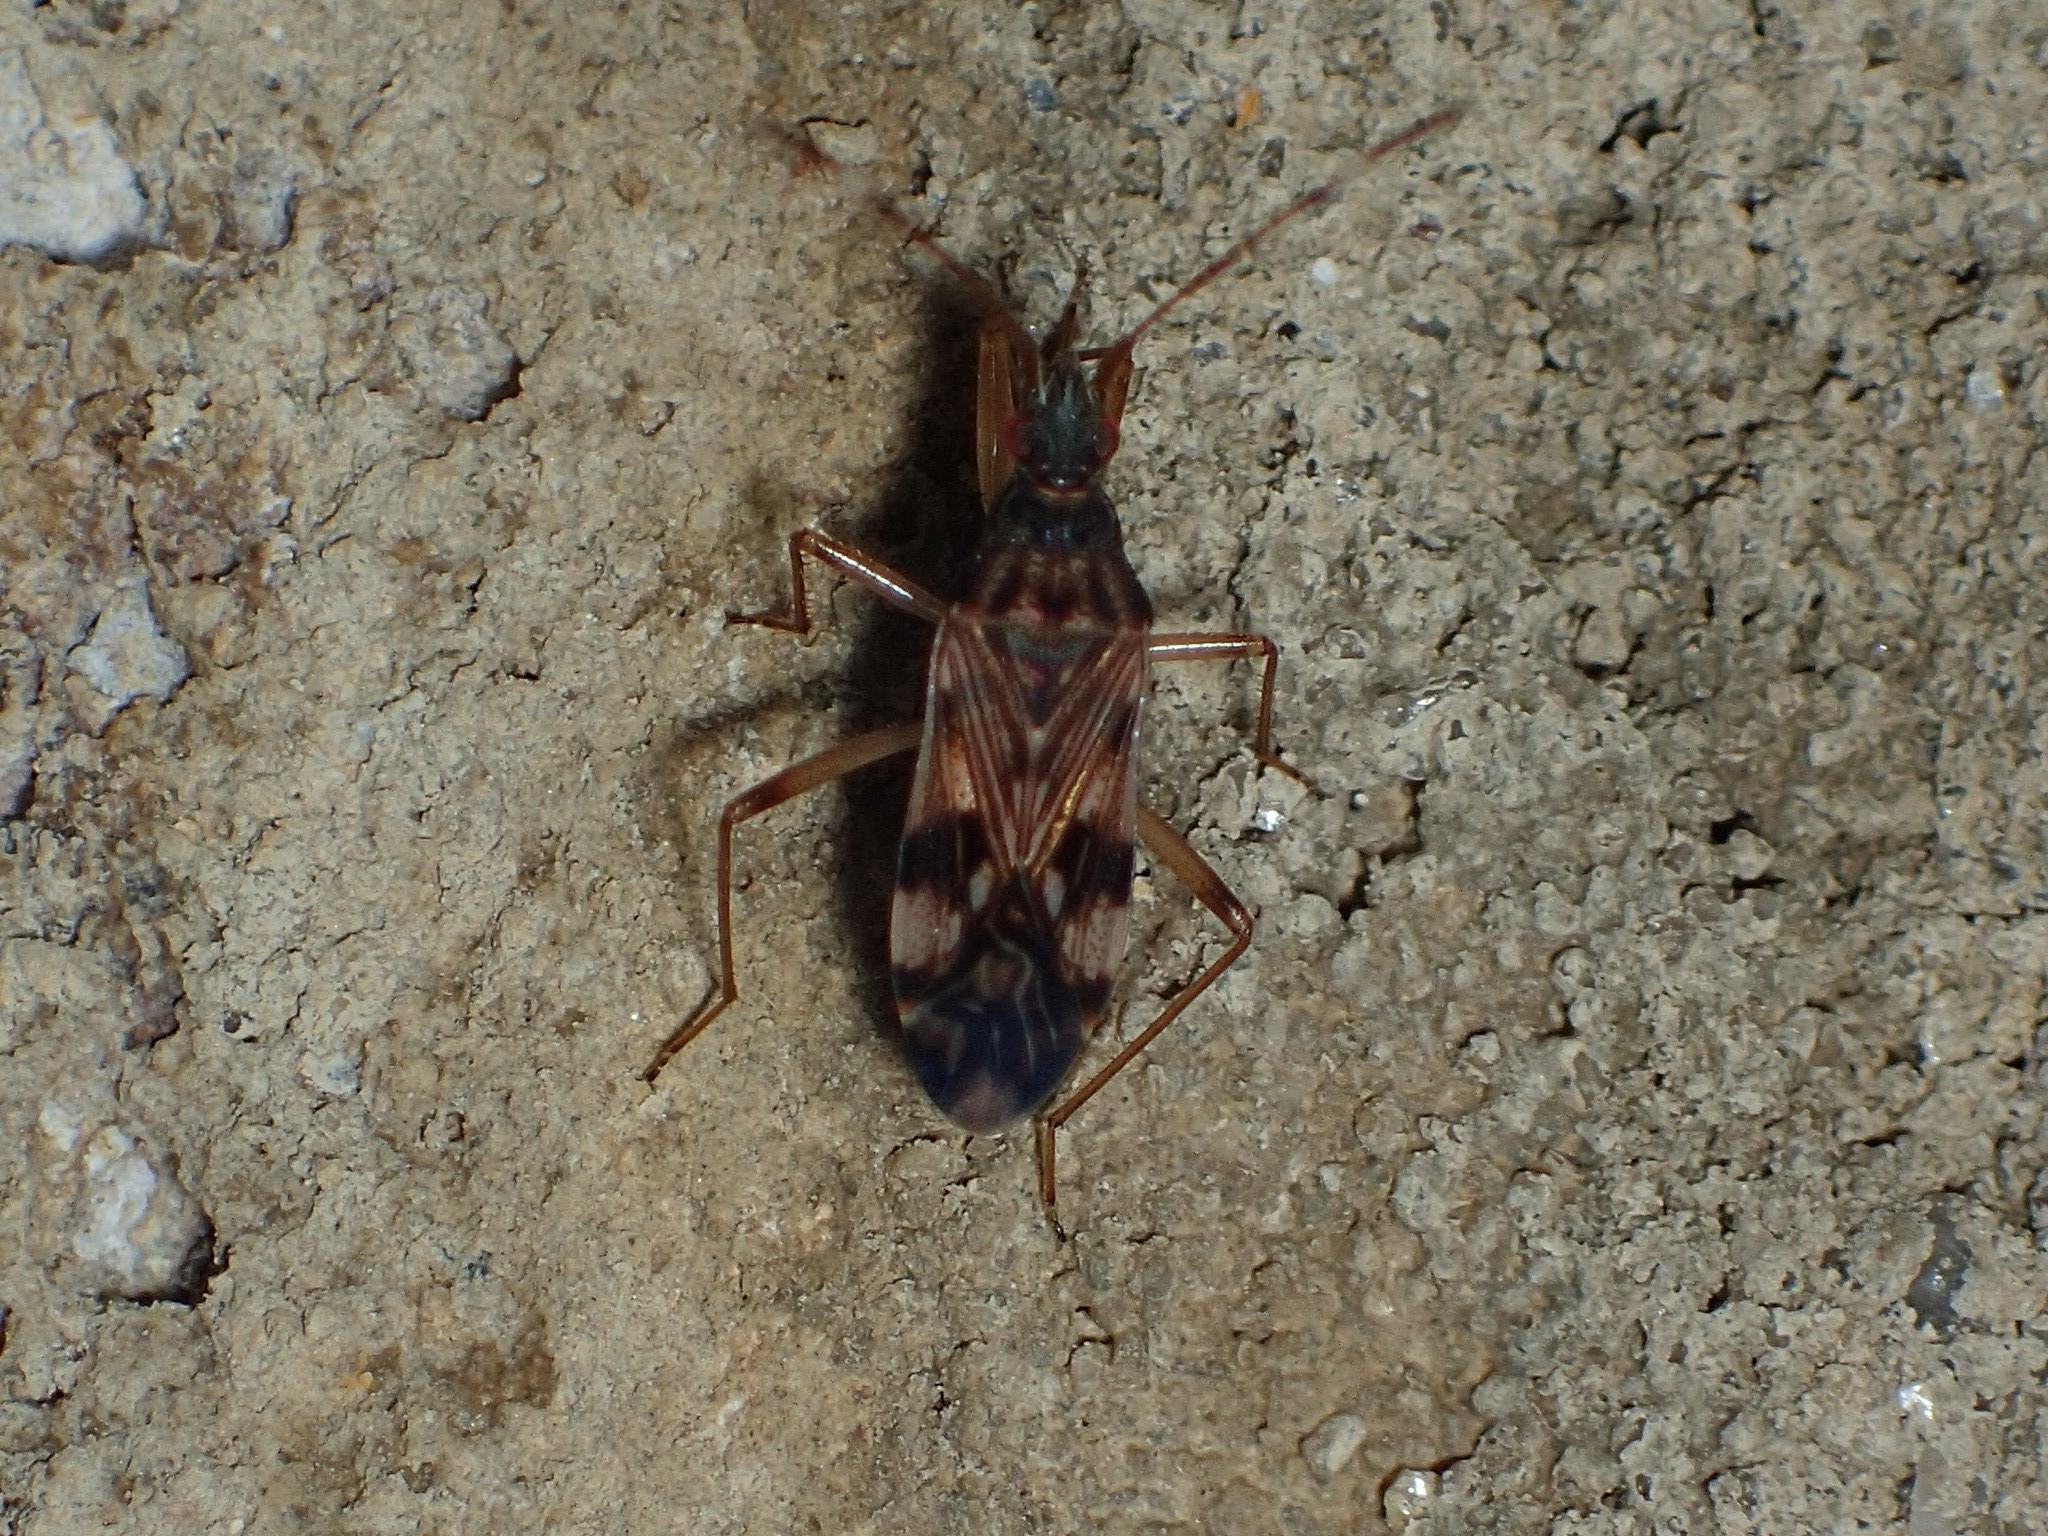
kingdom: Animalia
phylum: Arthropoda
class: Insecta
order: Hemiptera
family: Rhyparochromidae
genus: Ozophora
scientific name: Ozophora picturata
